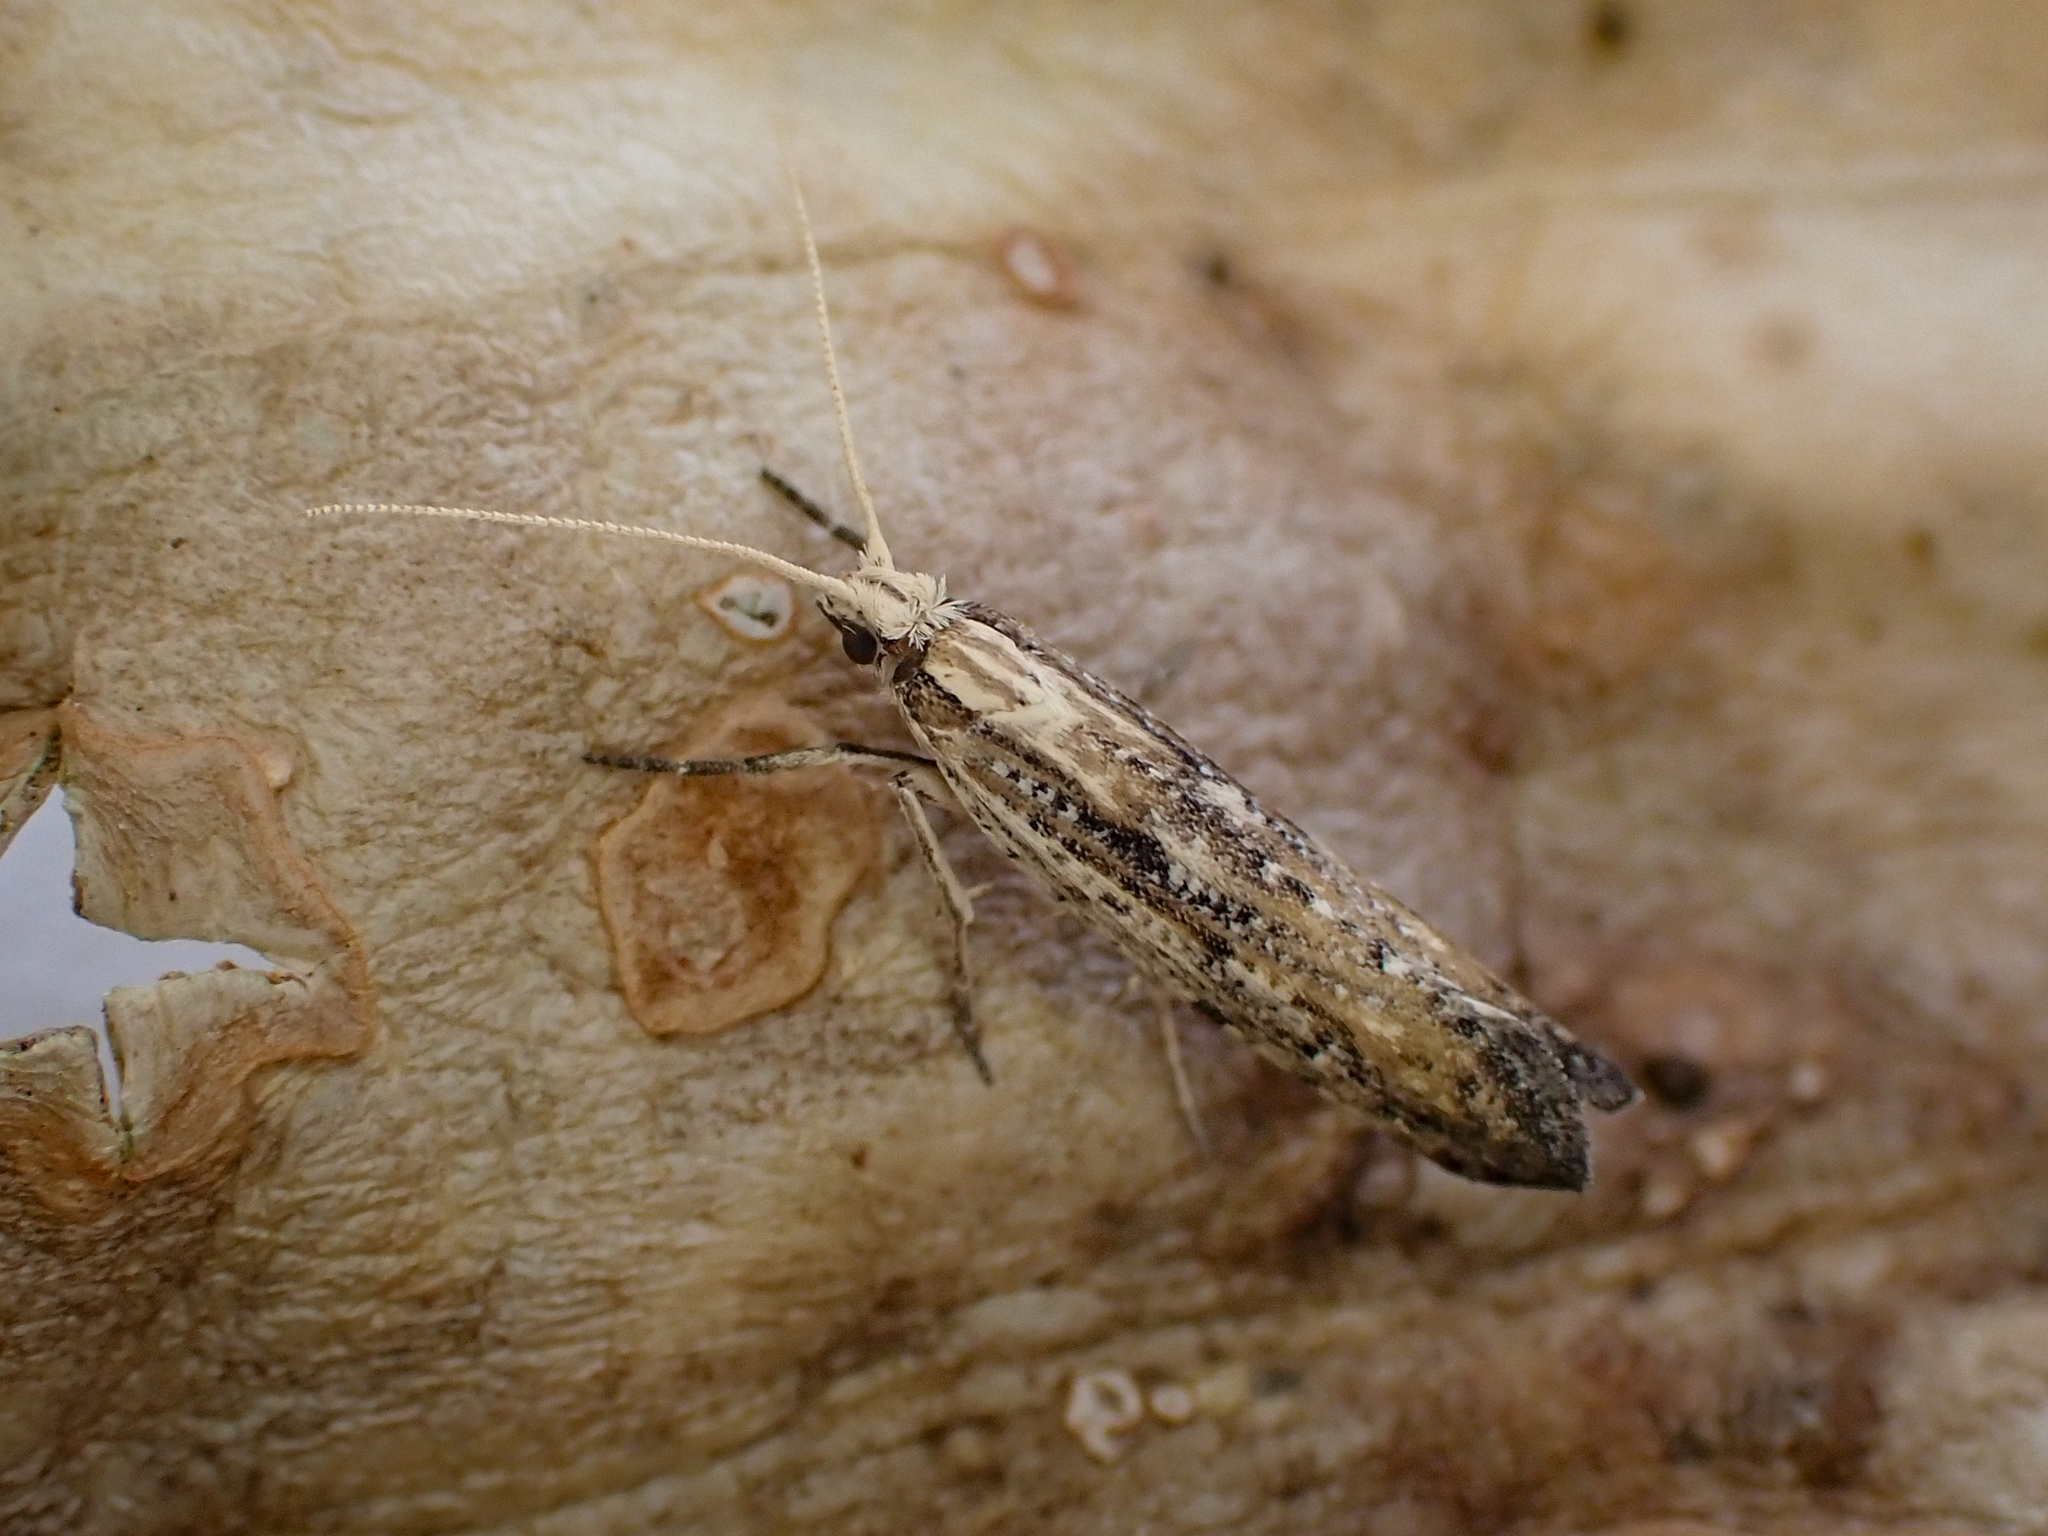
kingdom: Animalia
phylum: Arthropoda
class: Insecta
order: Lepidoptera
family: Glyphipterigidae
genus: Orthenches
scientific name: Orthenches chlorocoma
